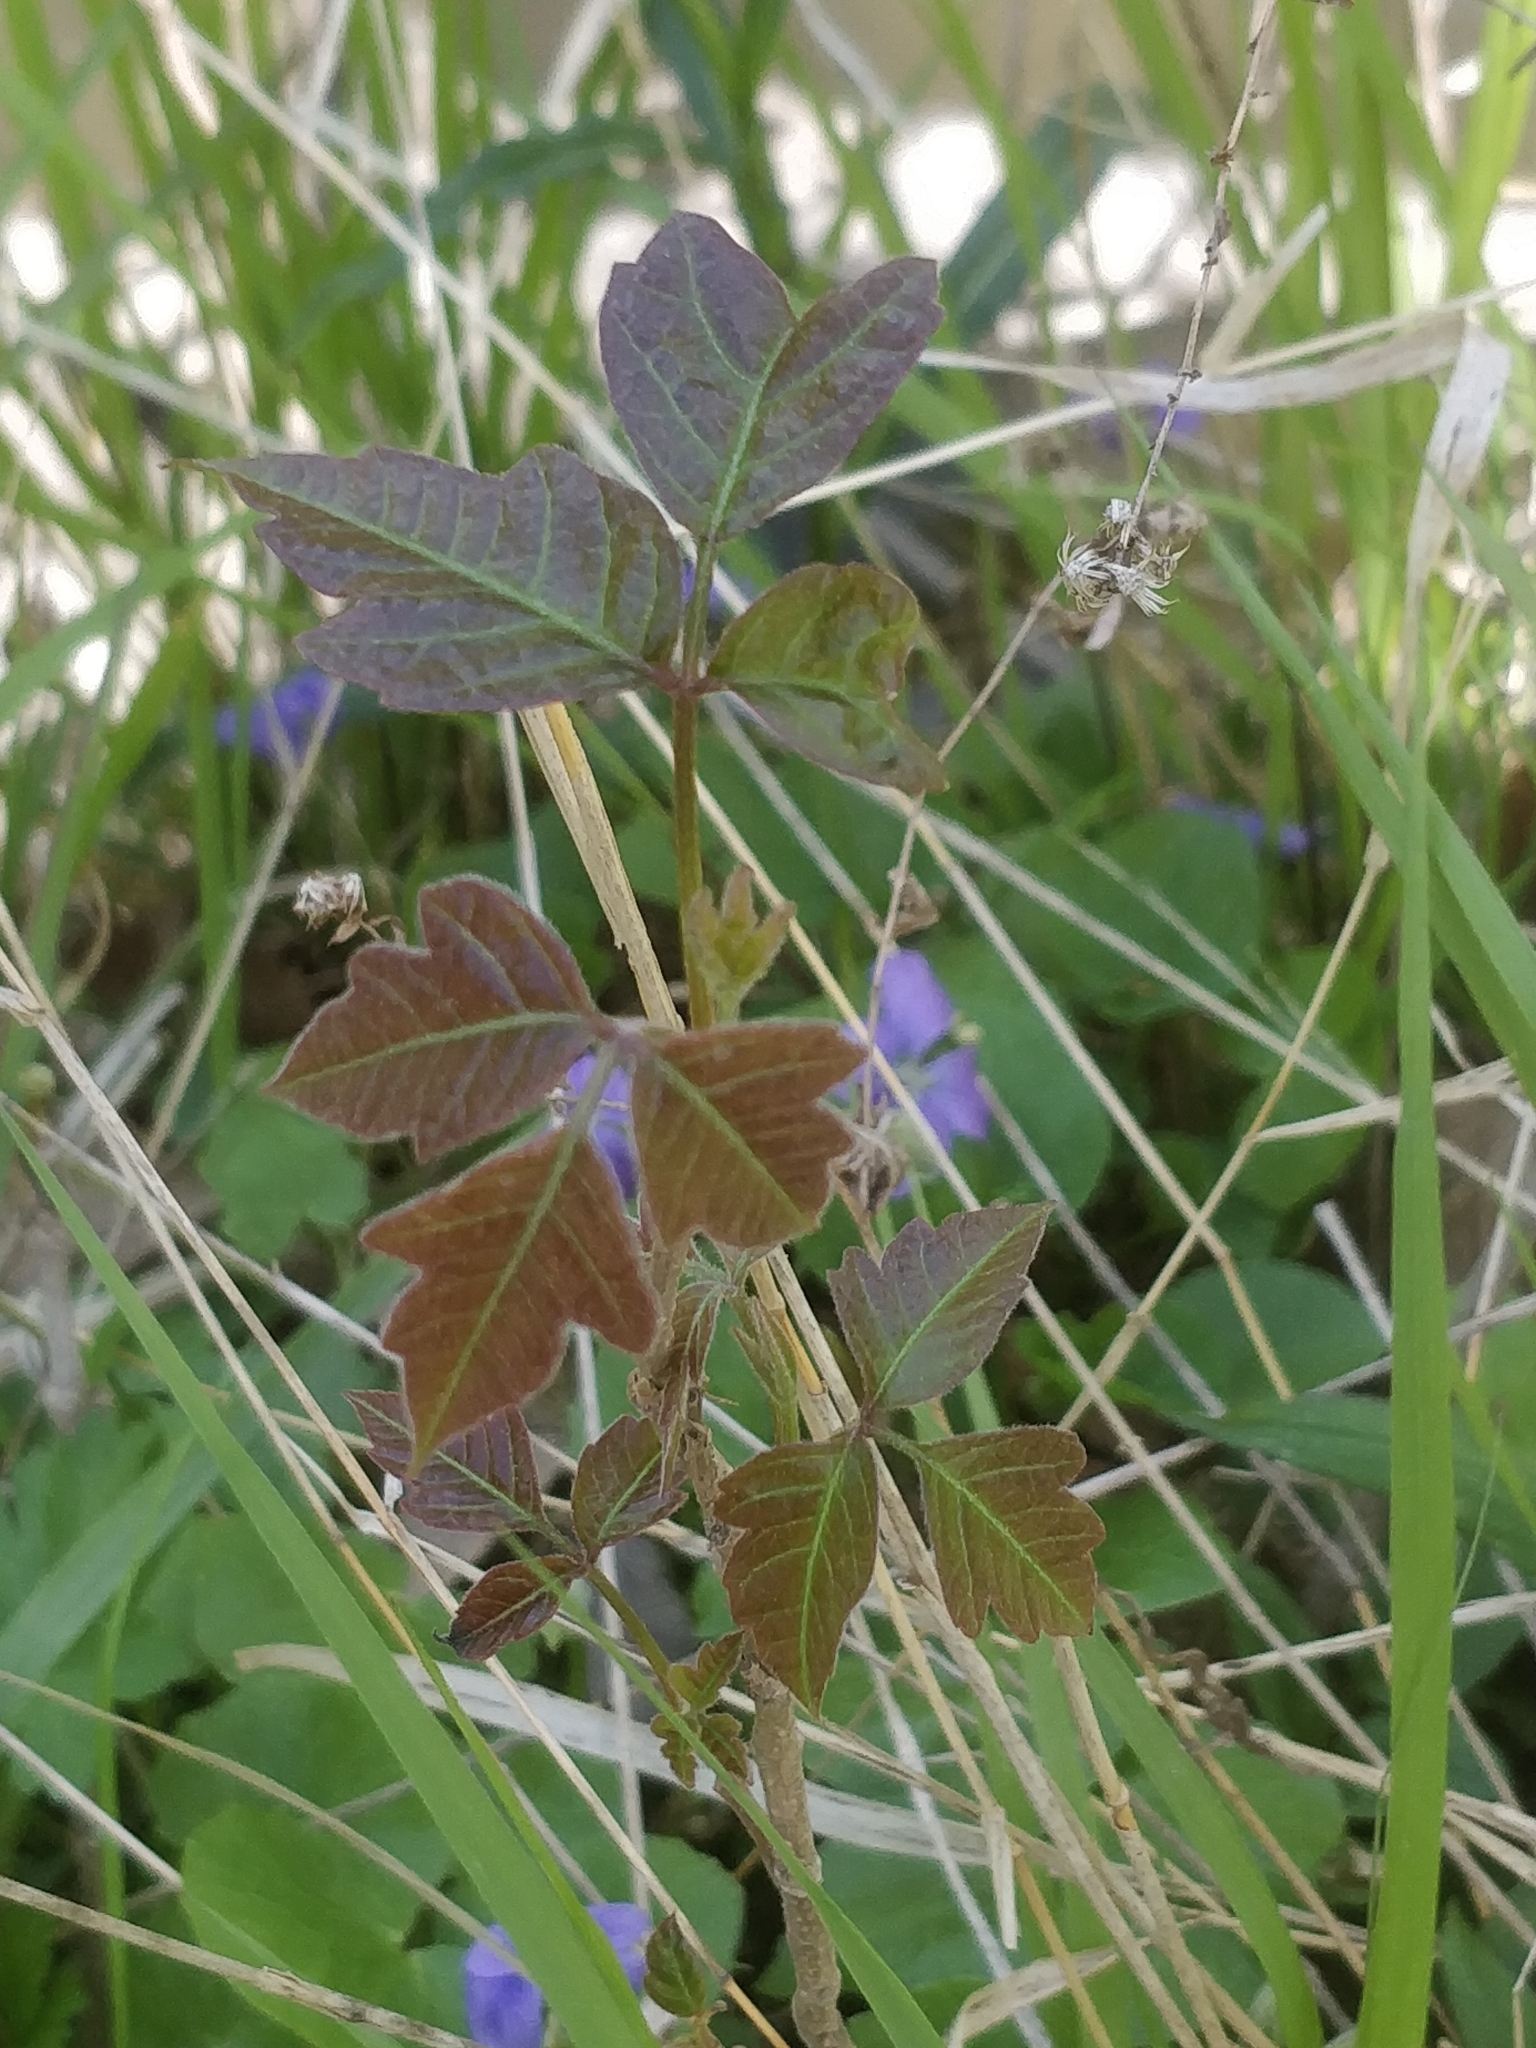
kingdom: Plantae
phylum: Tracheophyta
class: Magnoliopsida
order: Sapindales
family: Anacardiaceae
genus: Toxicodendron
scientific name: Toxicodendron radicans
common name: Poison ivy
